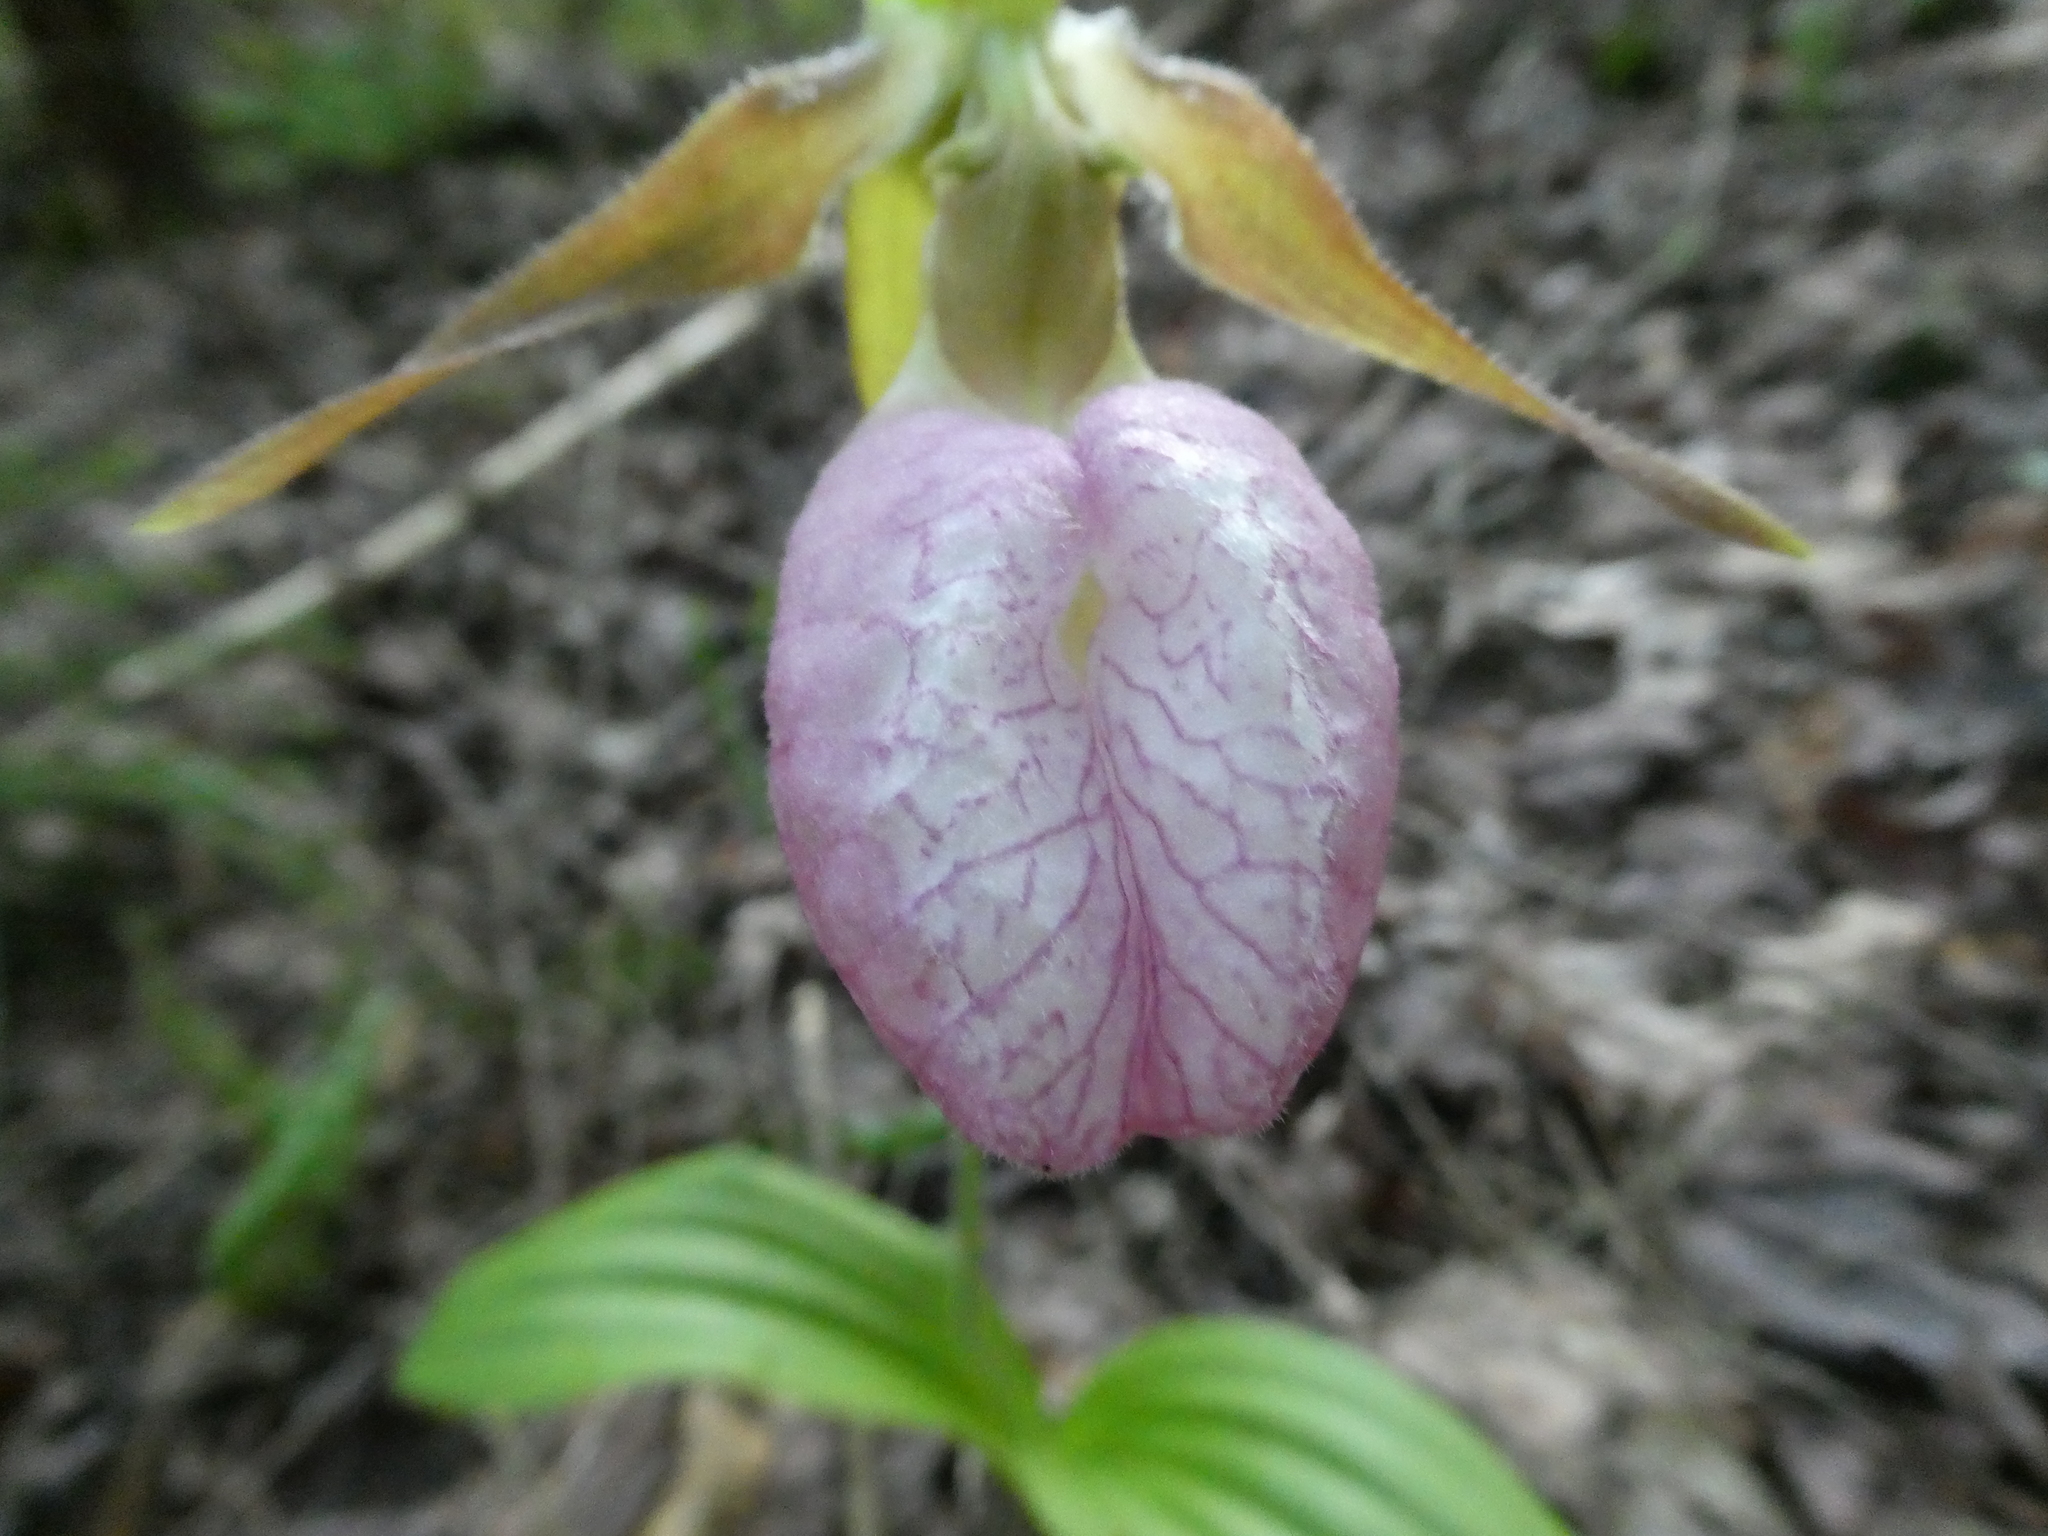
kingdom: Plantae
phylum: Tracheophyta
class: Liliopsida
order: Asparagales
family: Orchidaceae
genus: Cypripedium
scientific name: Cypripedium acaule
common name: Pink lady's-slipper
